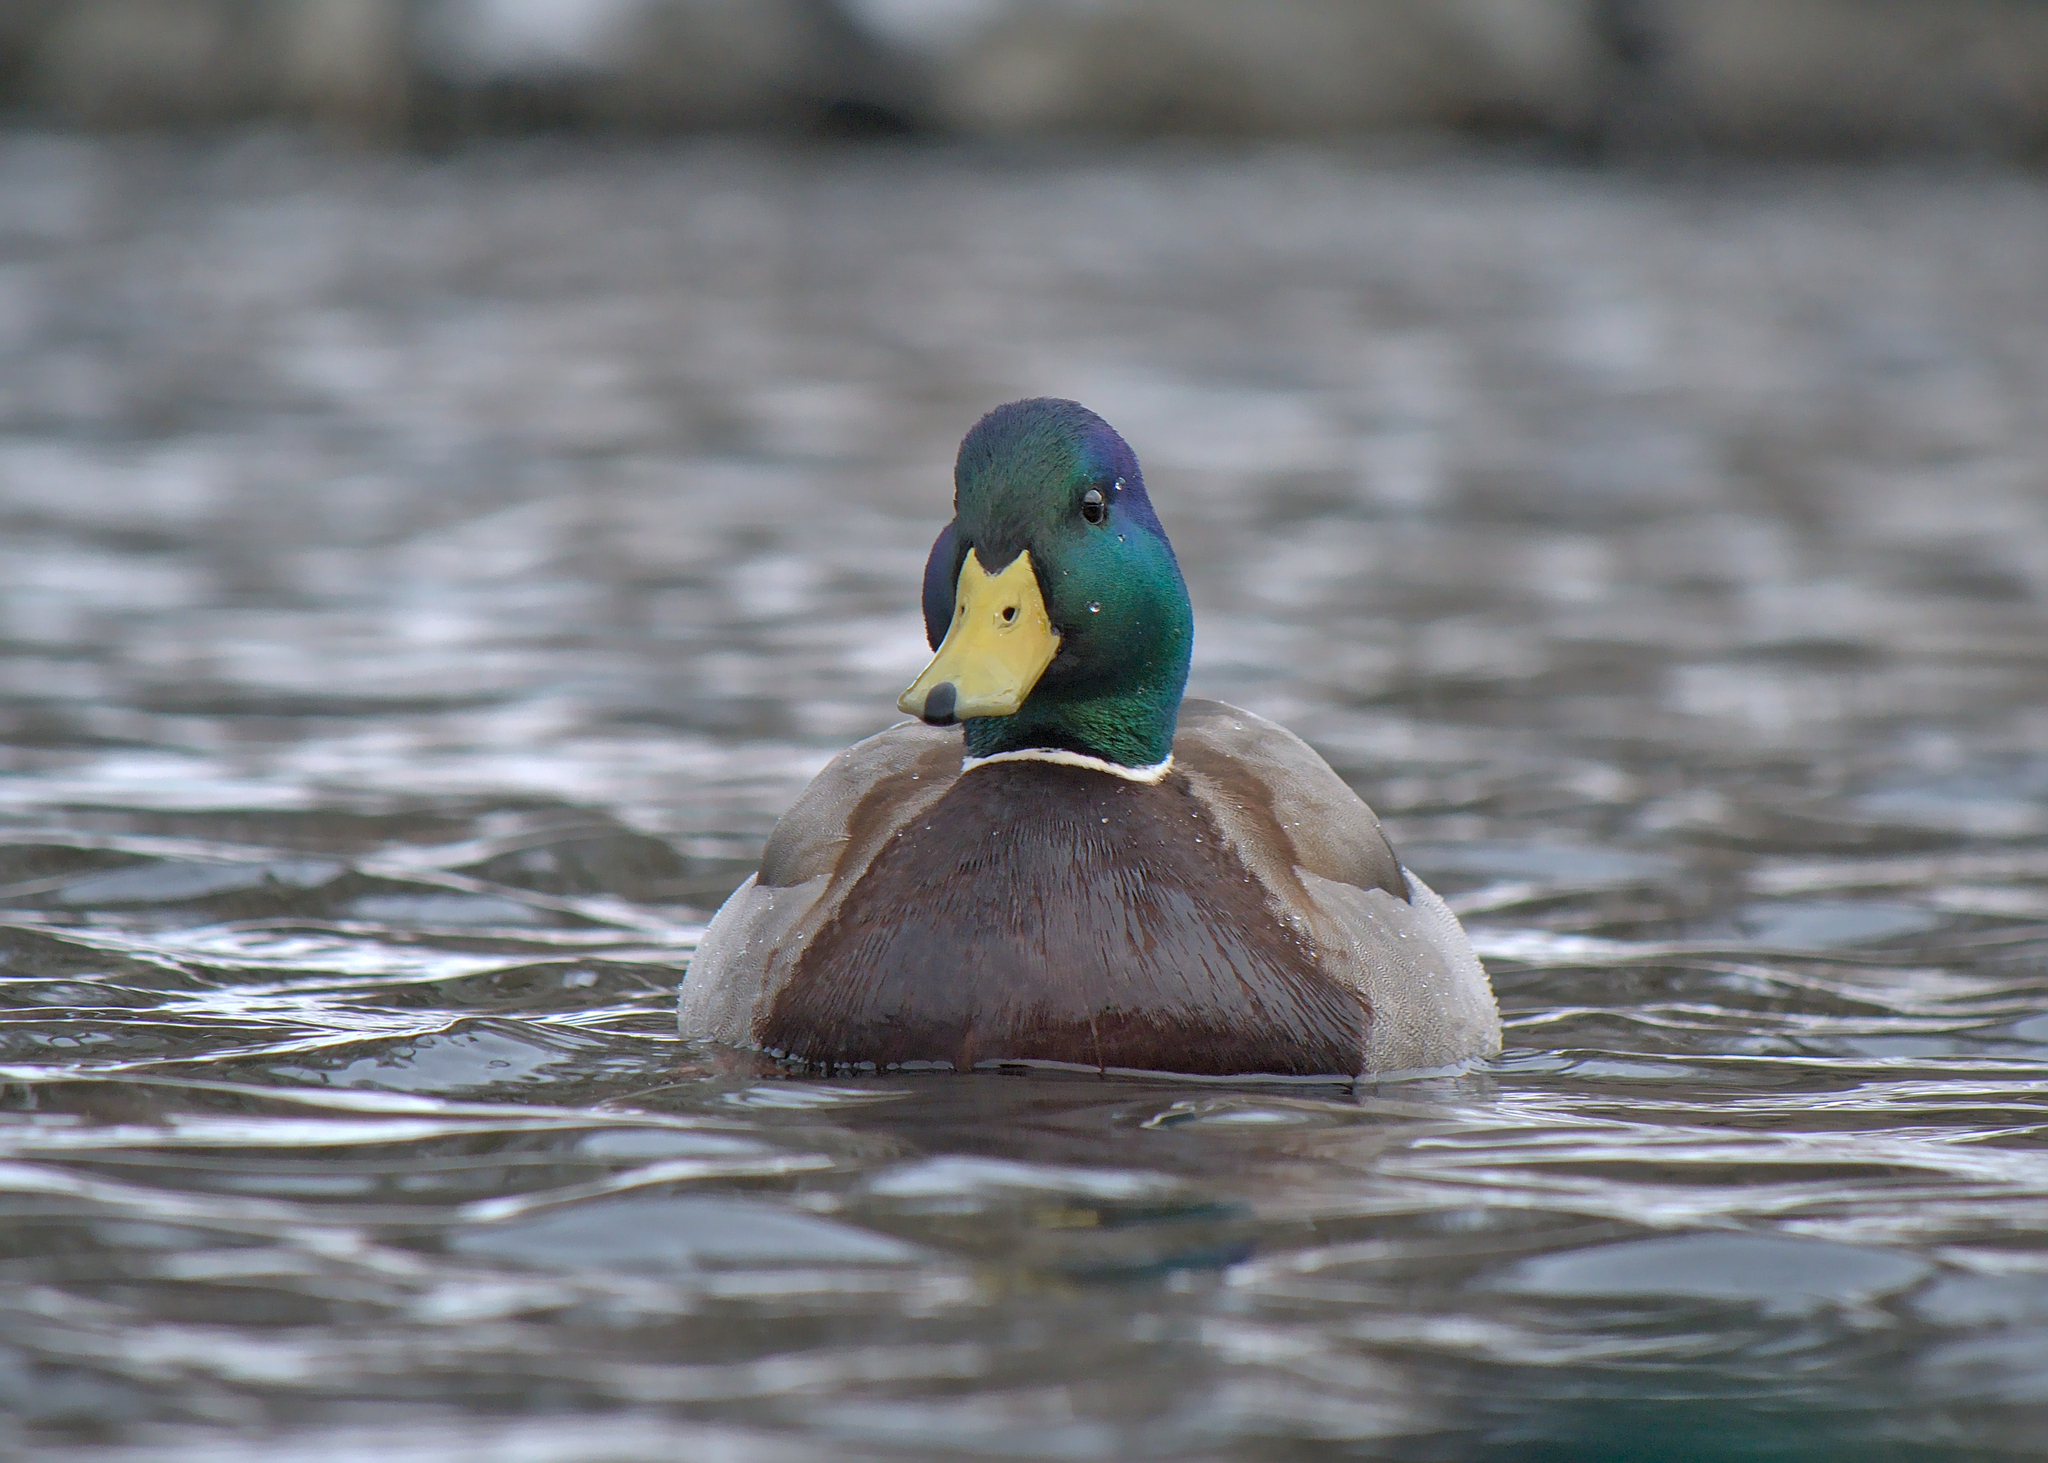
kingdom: Animalia
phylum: Chordata
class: Aves
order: Anseriformes
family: Anatidae
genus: Anas
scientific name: Anas platyrhynchos
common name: Mallard
